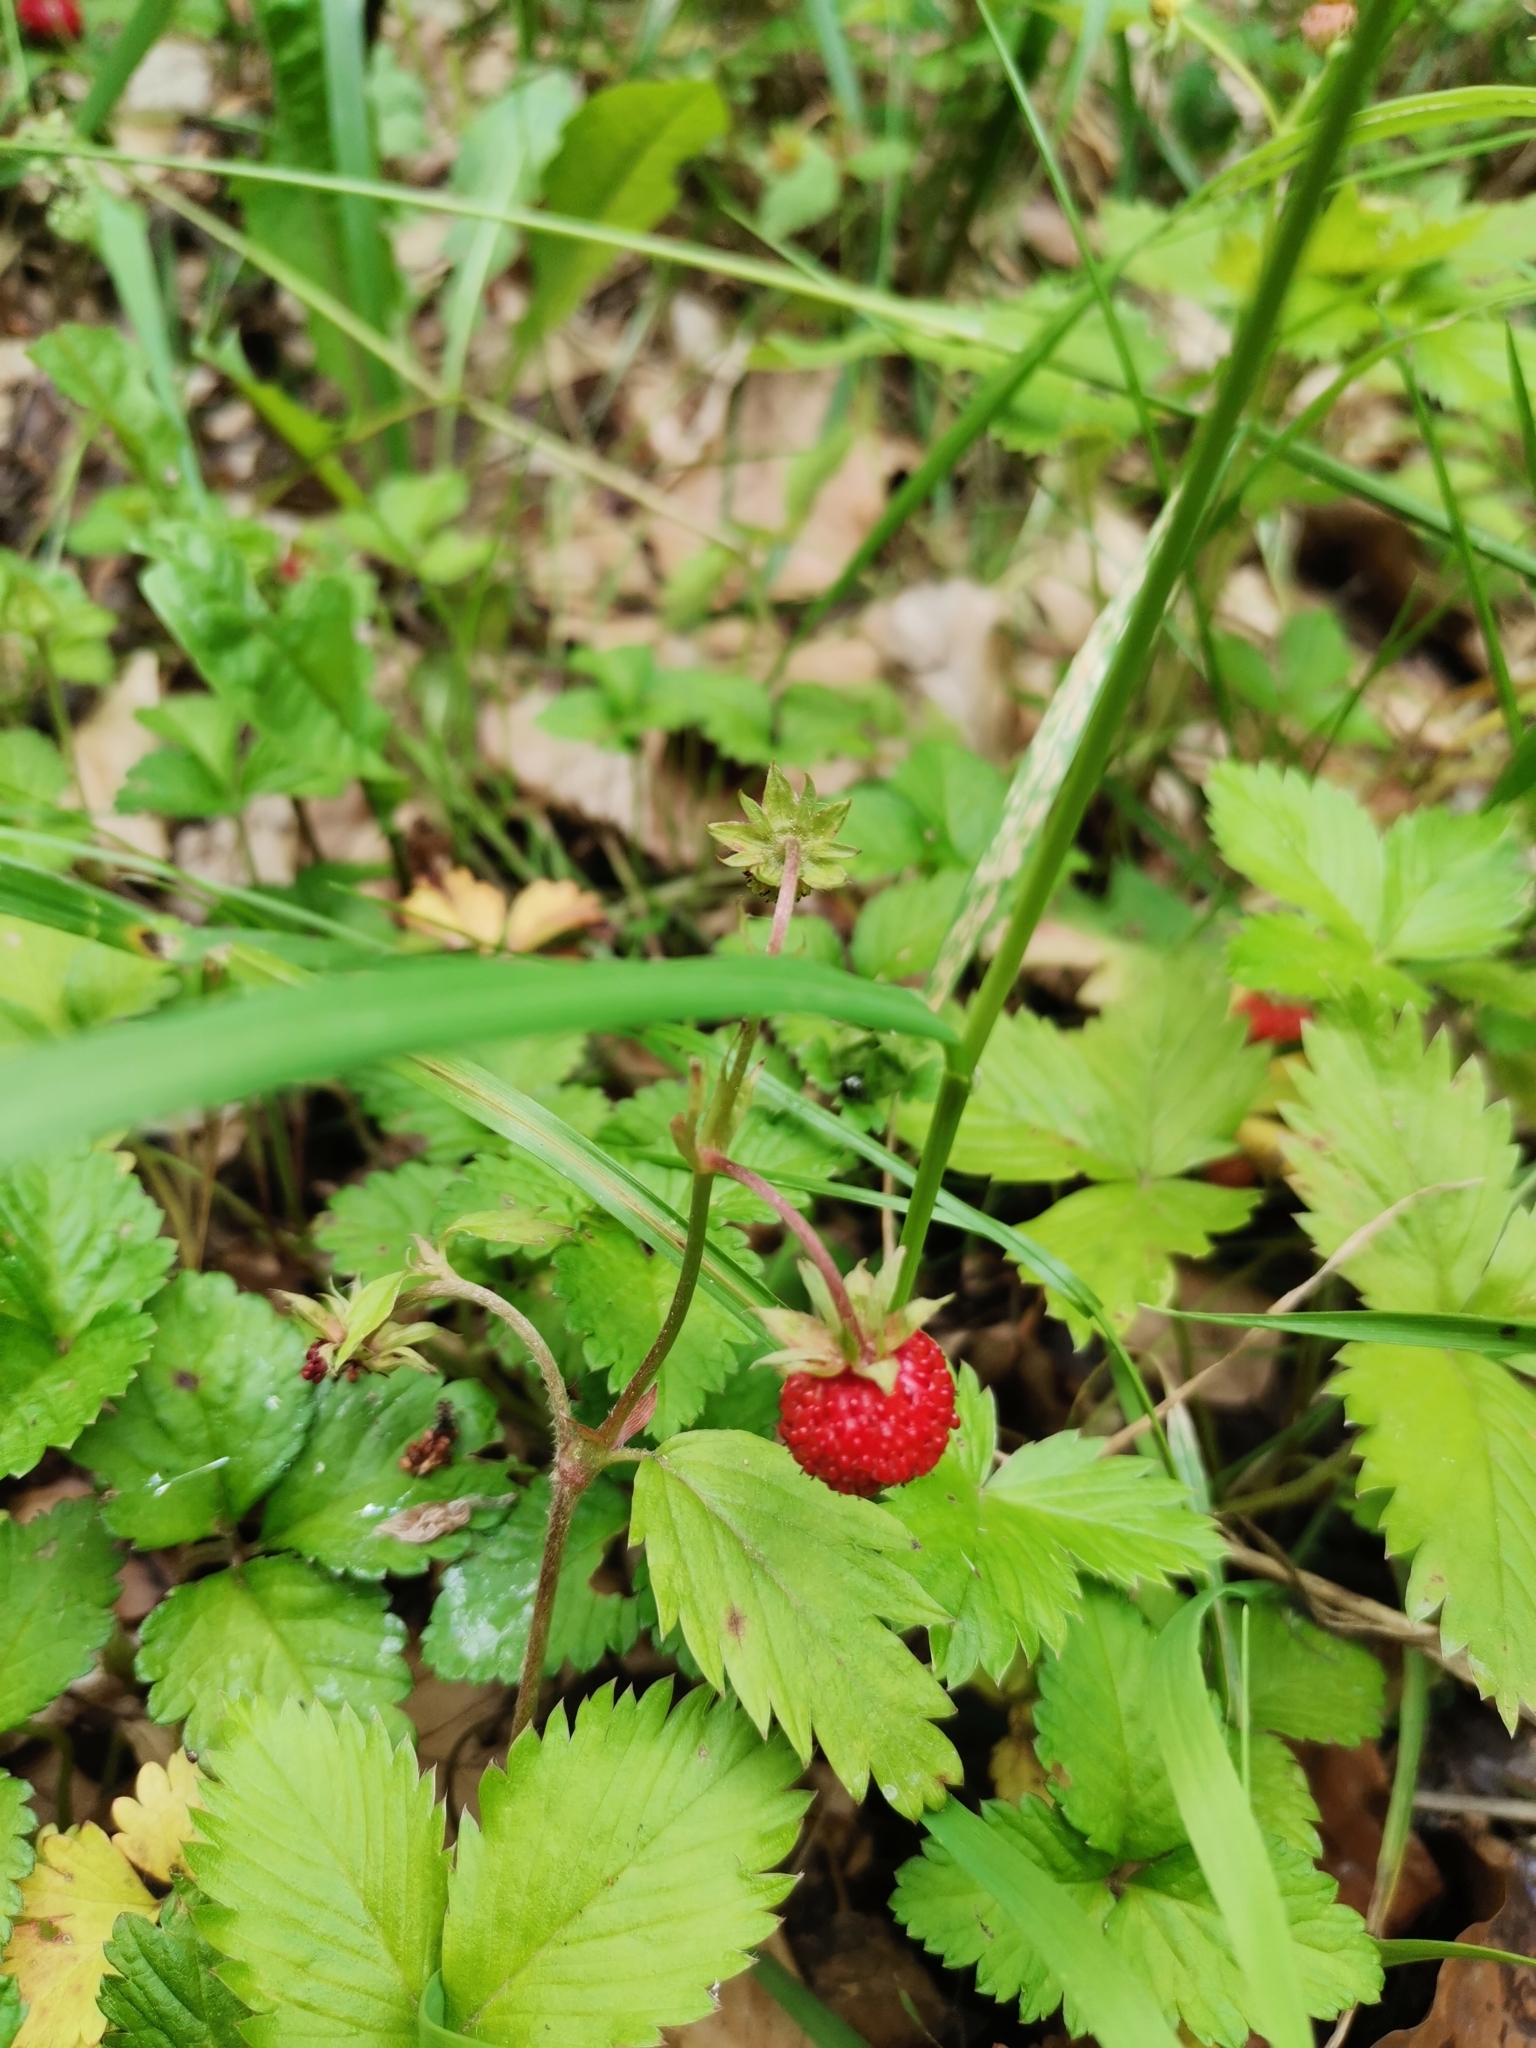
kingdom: Plantae
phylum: Tracheophyta
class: Magnoliopsida
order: Rosales
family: Rosaceae
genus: Fragaria
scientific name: Fragaria vesca
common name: Wild strawberry
